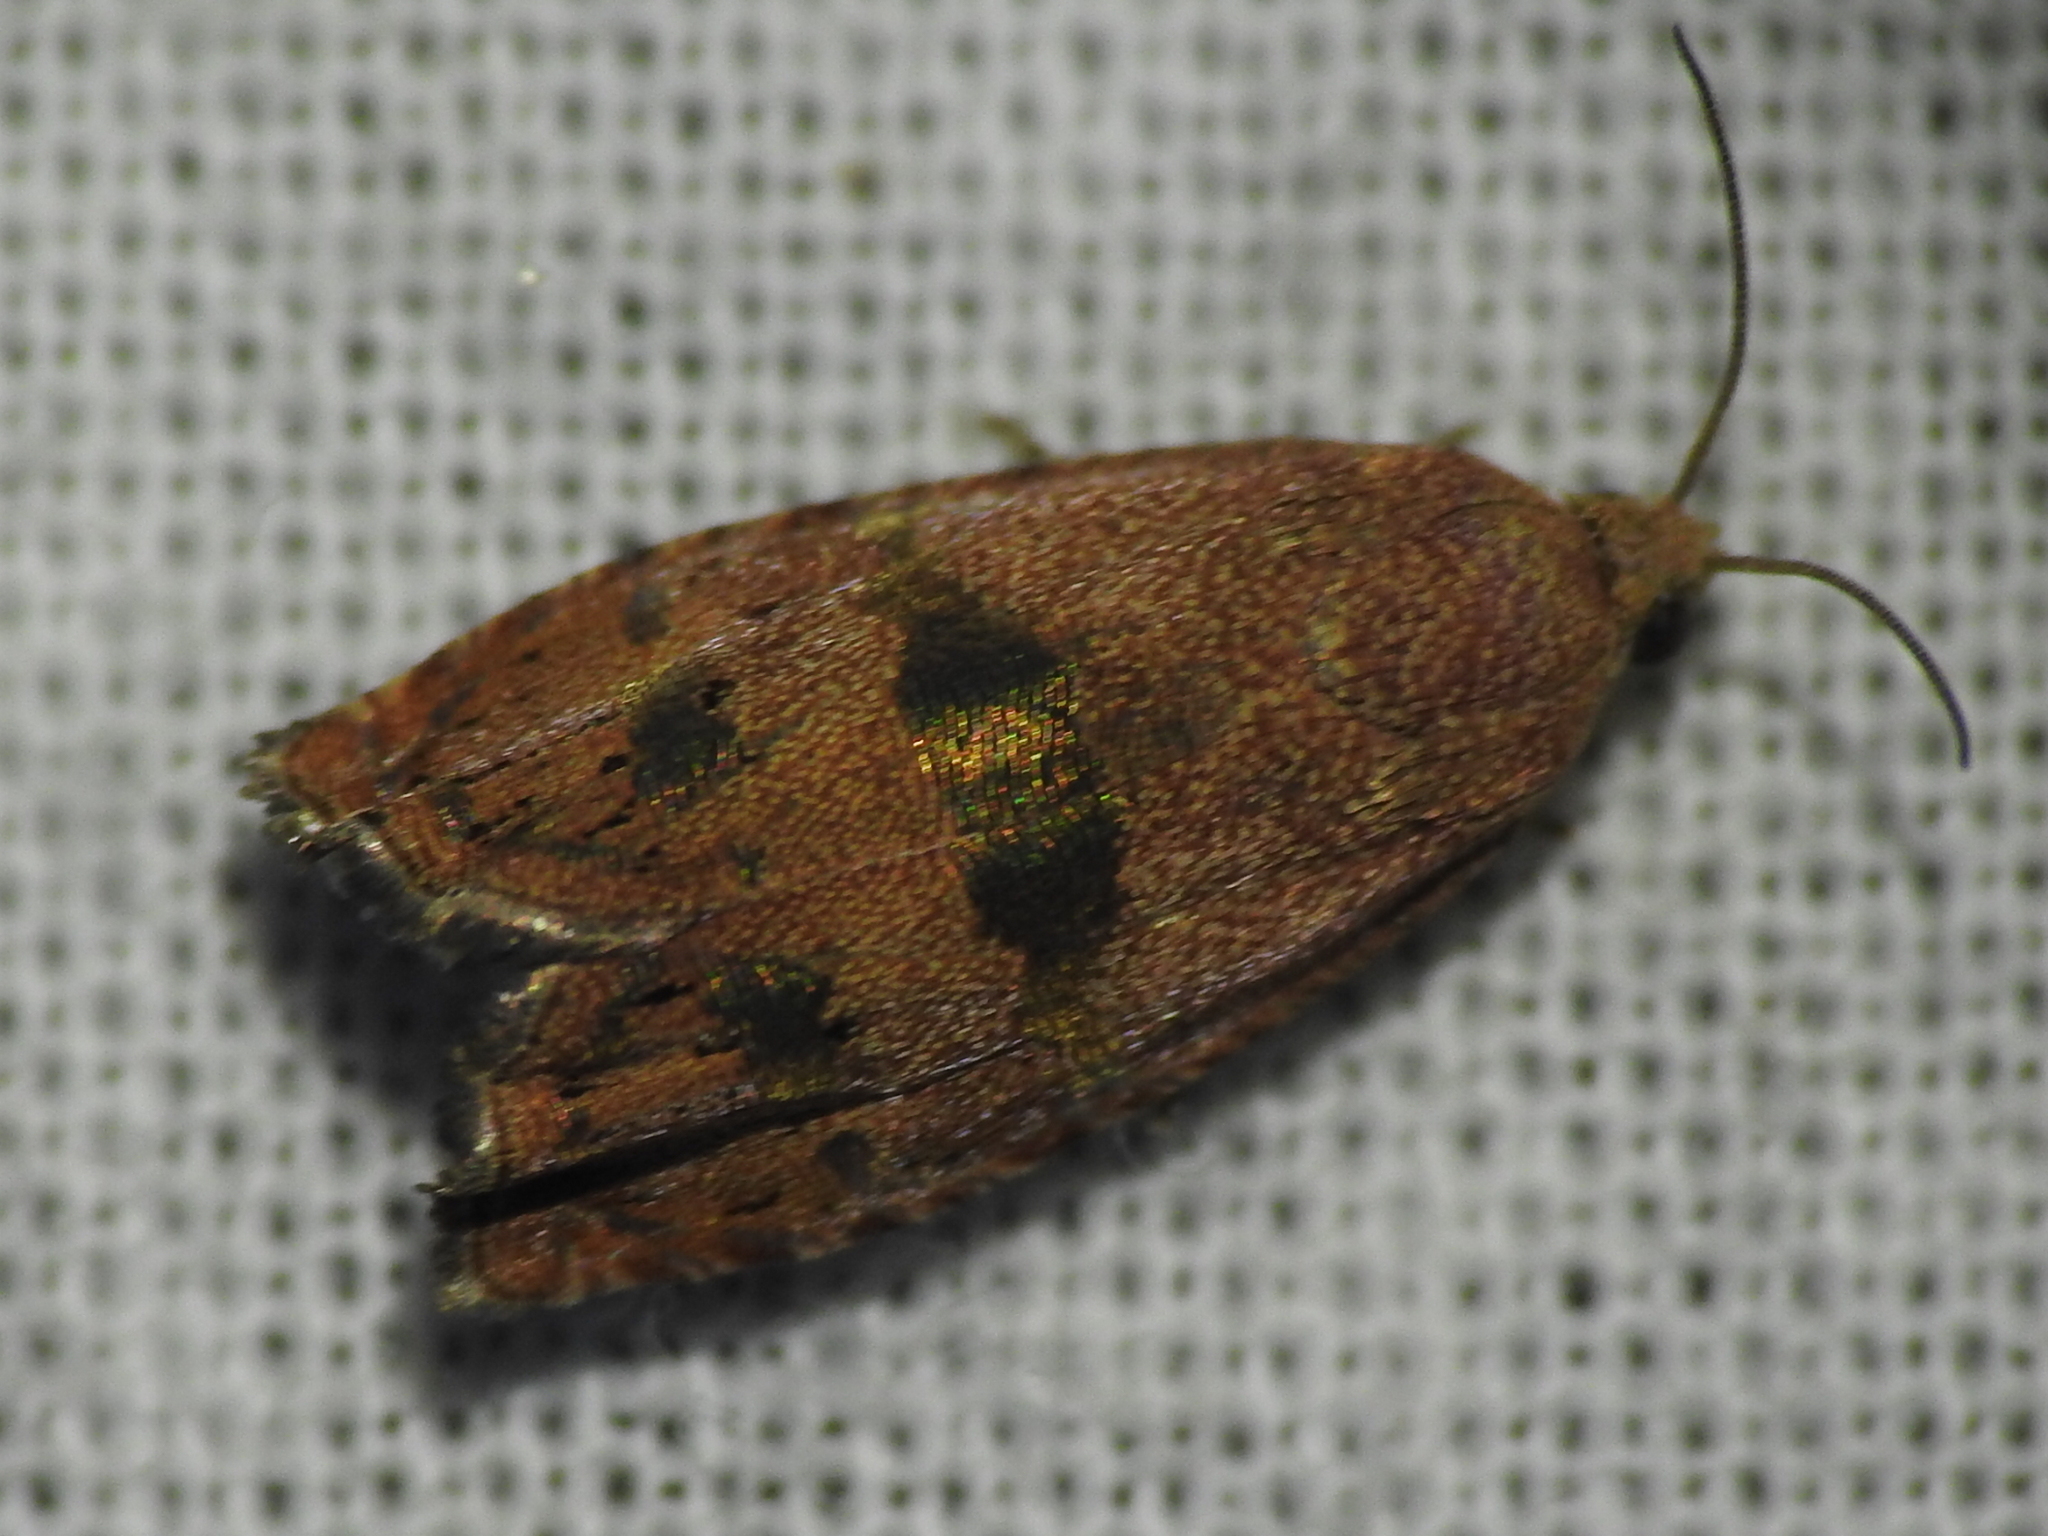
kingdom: Animalia
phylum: Arthropoda
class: Insecta
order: Lepidoptera
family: Tortricidae
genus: Cydia
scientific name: Cydia latiferreana
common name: Filbertworm moth
